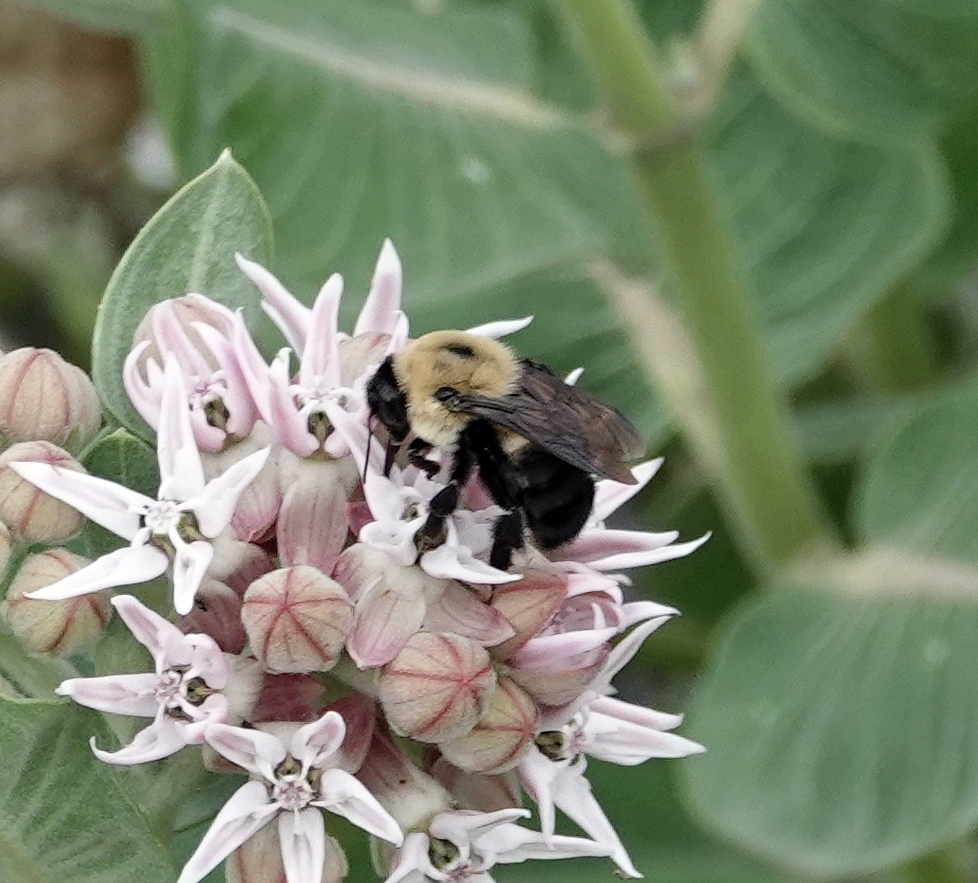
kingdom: Animalia
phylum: Arthropoda
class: Insecta
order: Hymenoptera
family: Apidae
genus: Bombus
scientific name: Bombus griseocollis
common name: Brown-belted bumble bee
